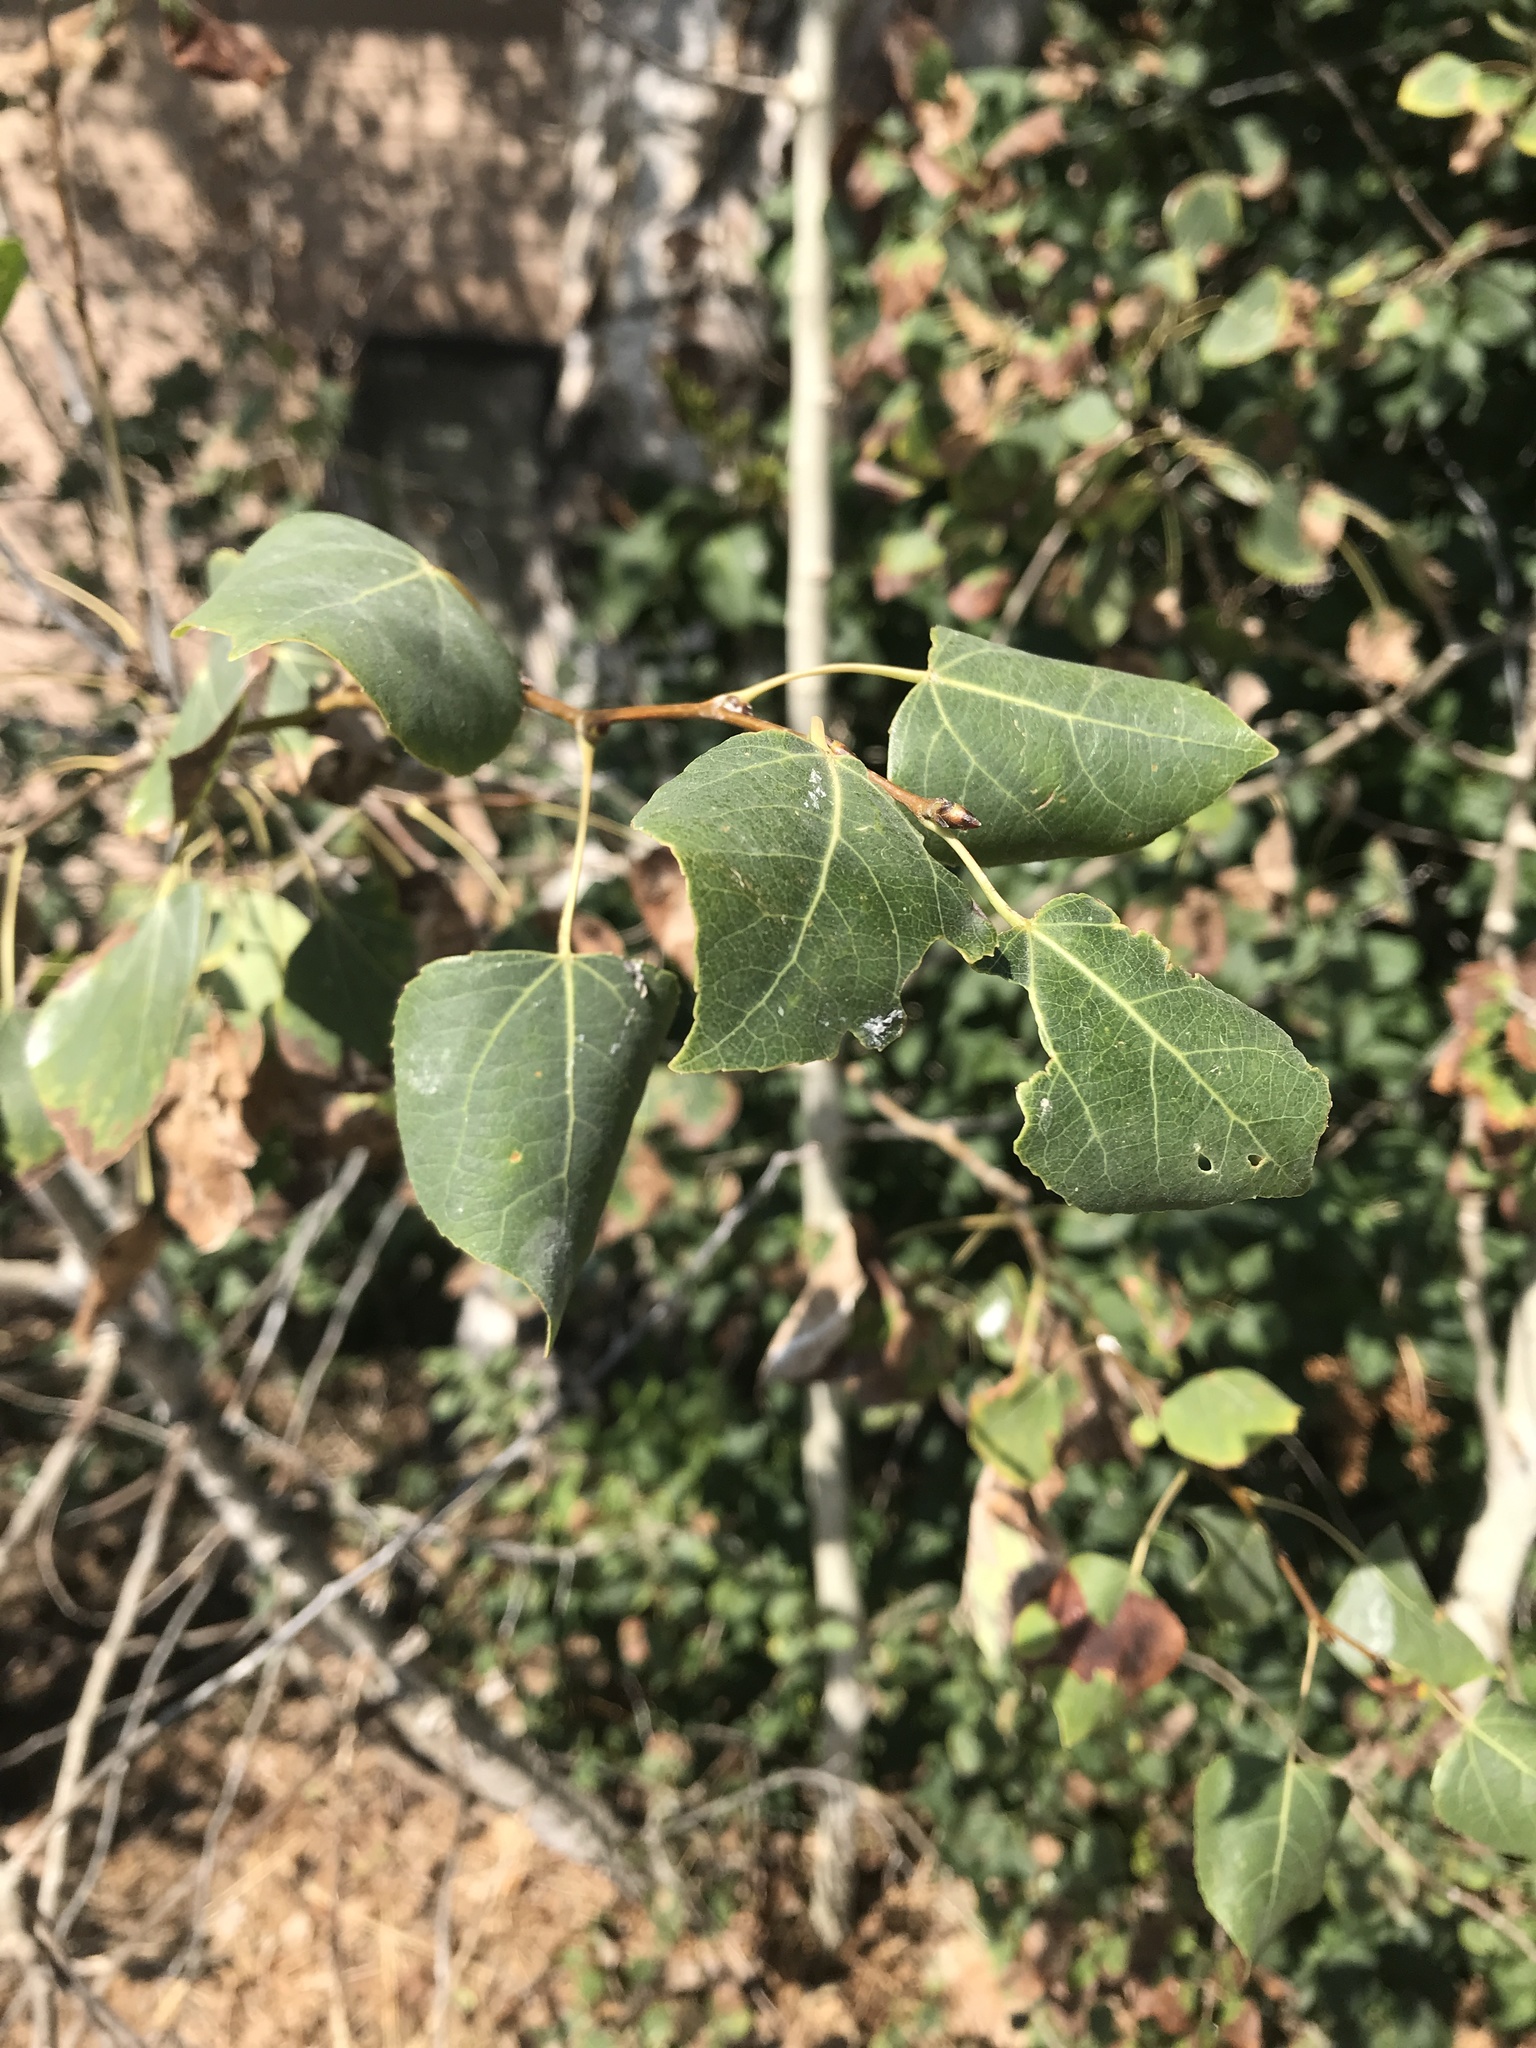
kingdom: Plantae
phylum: Tracheophyta
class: Magnoliopsida
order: Malpighiales
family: Salicaceae
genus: Populus
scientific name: Populus tremuloides
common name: Quaking aspen
